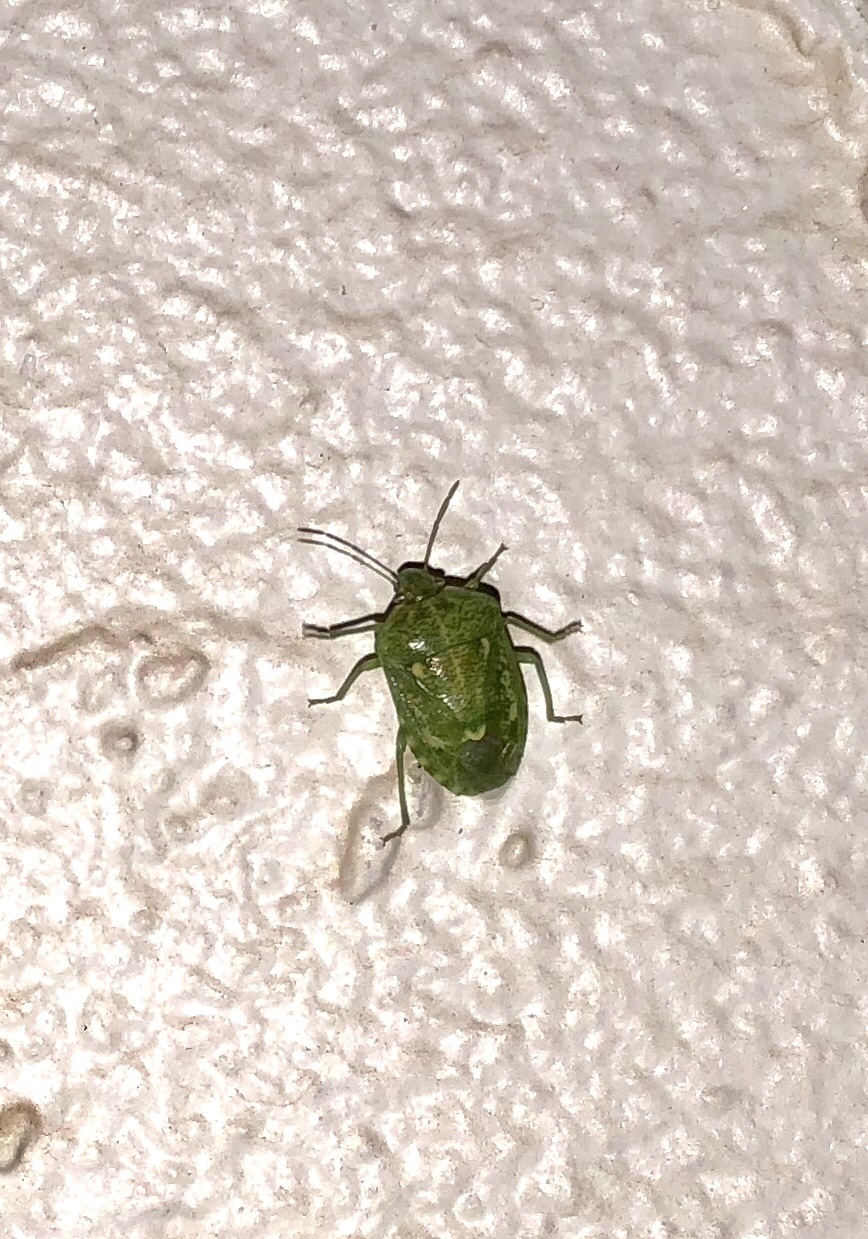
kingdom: Animalia
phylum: Arthropoda
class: Insecta
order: Hemiptera
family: Pentatomidae
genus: Banasa
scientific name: Banasa euchlora
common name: Cedar berry bug
